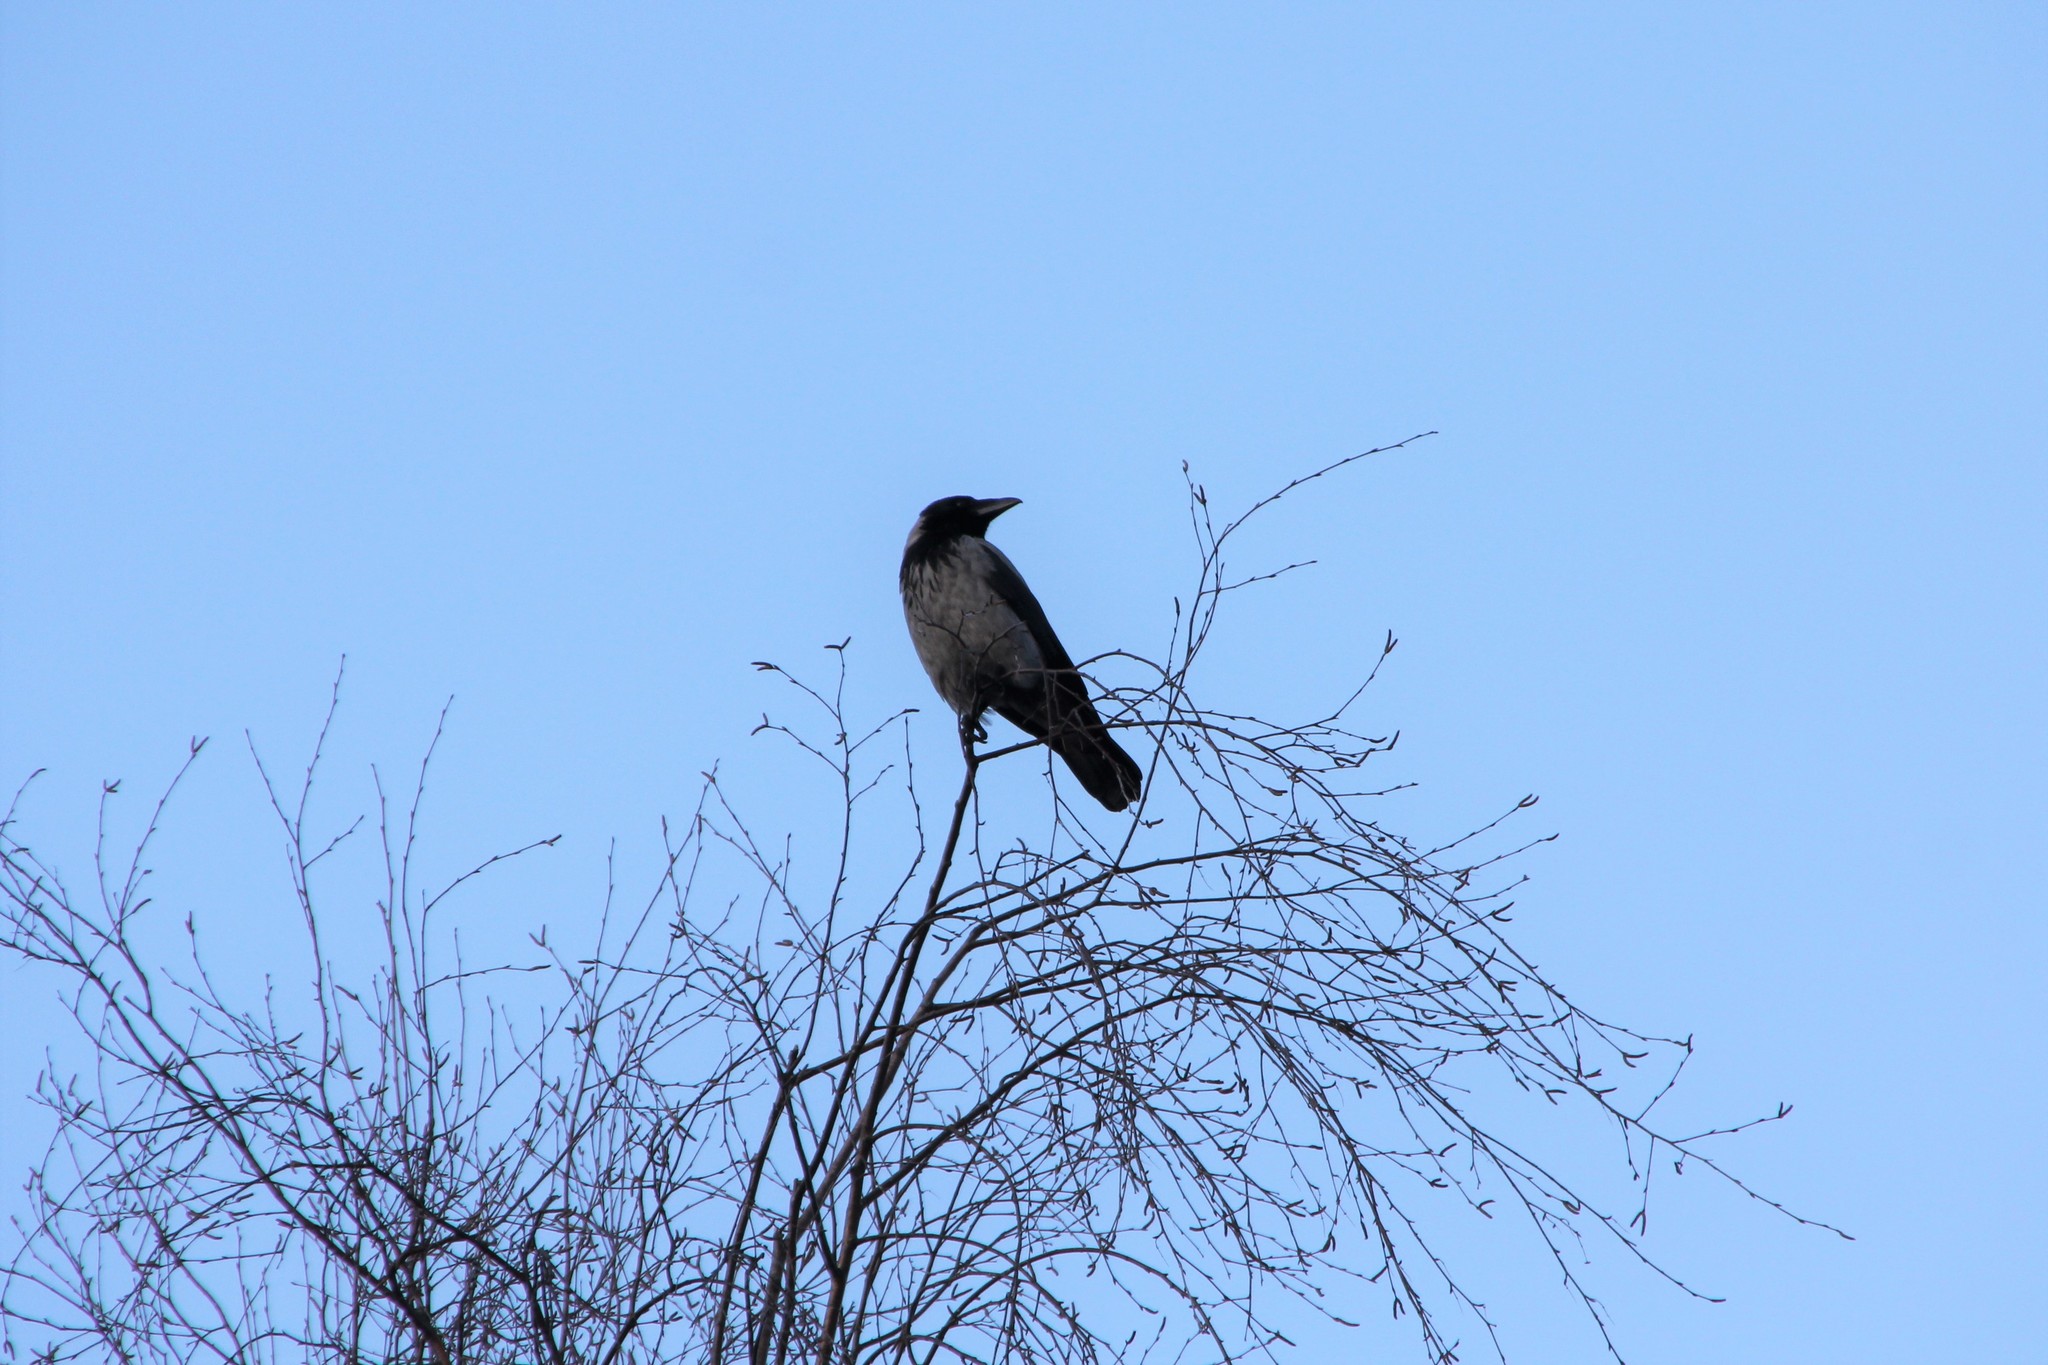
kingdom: Animalia
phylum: Chordata
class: Aves
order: Passeriformes
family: Corvidae
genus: Corvus
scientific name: Corvus cornix
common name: Hooded crow
